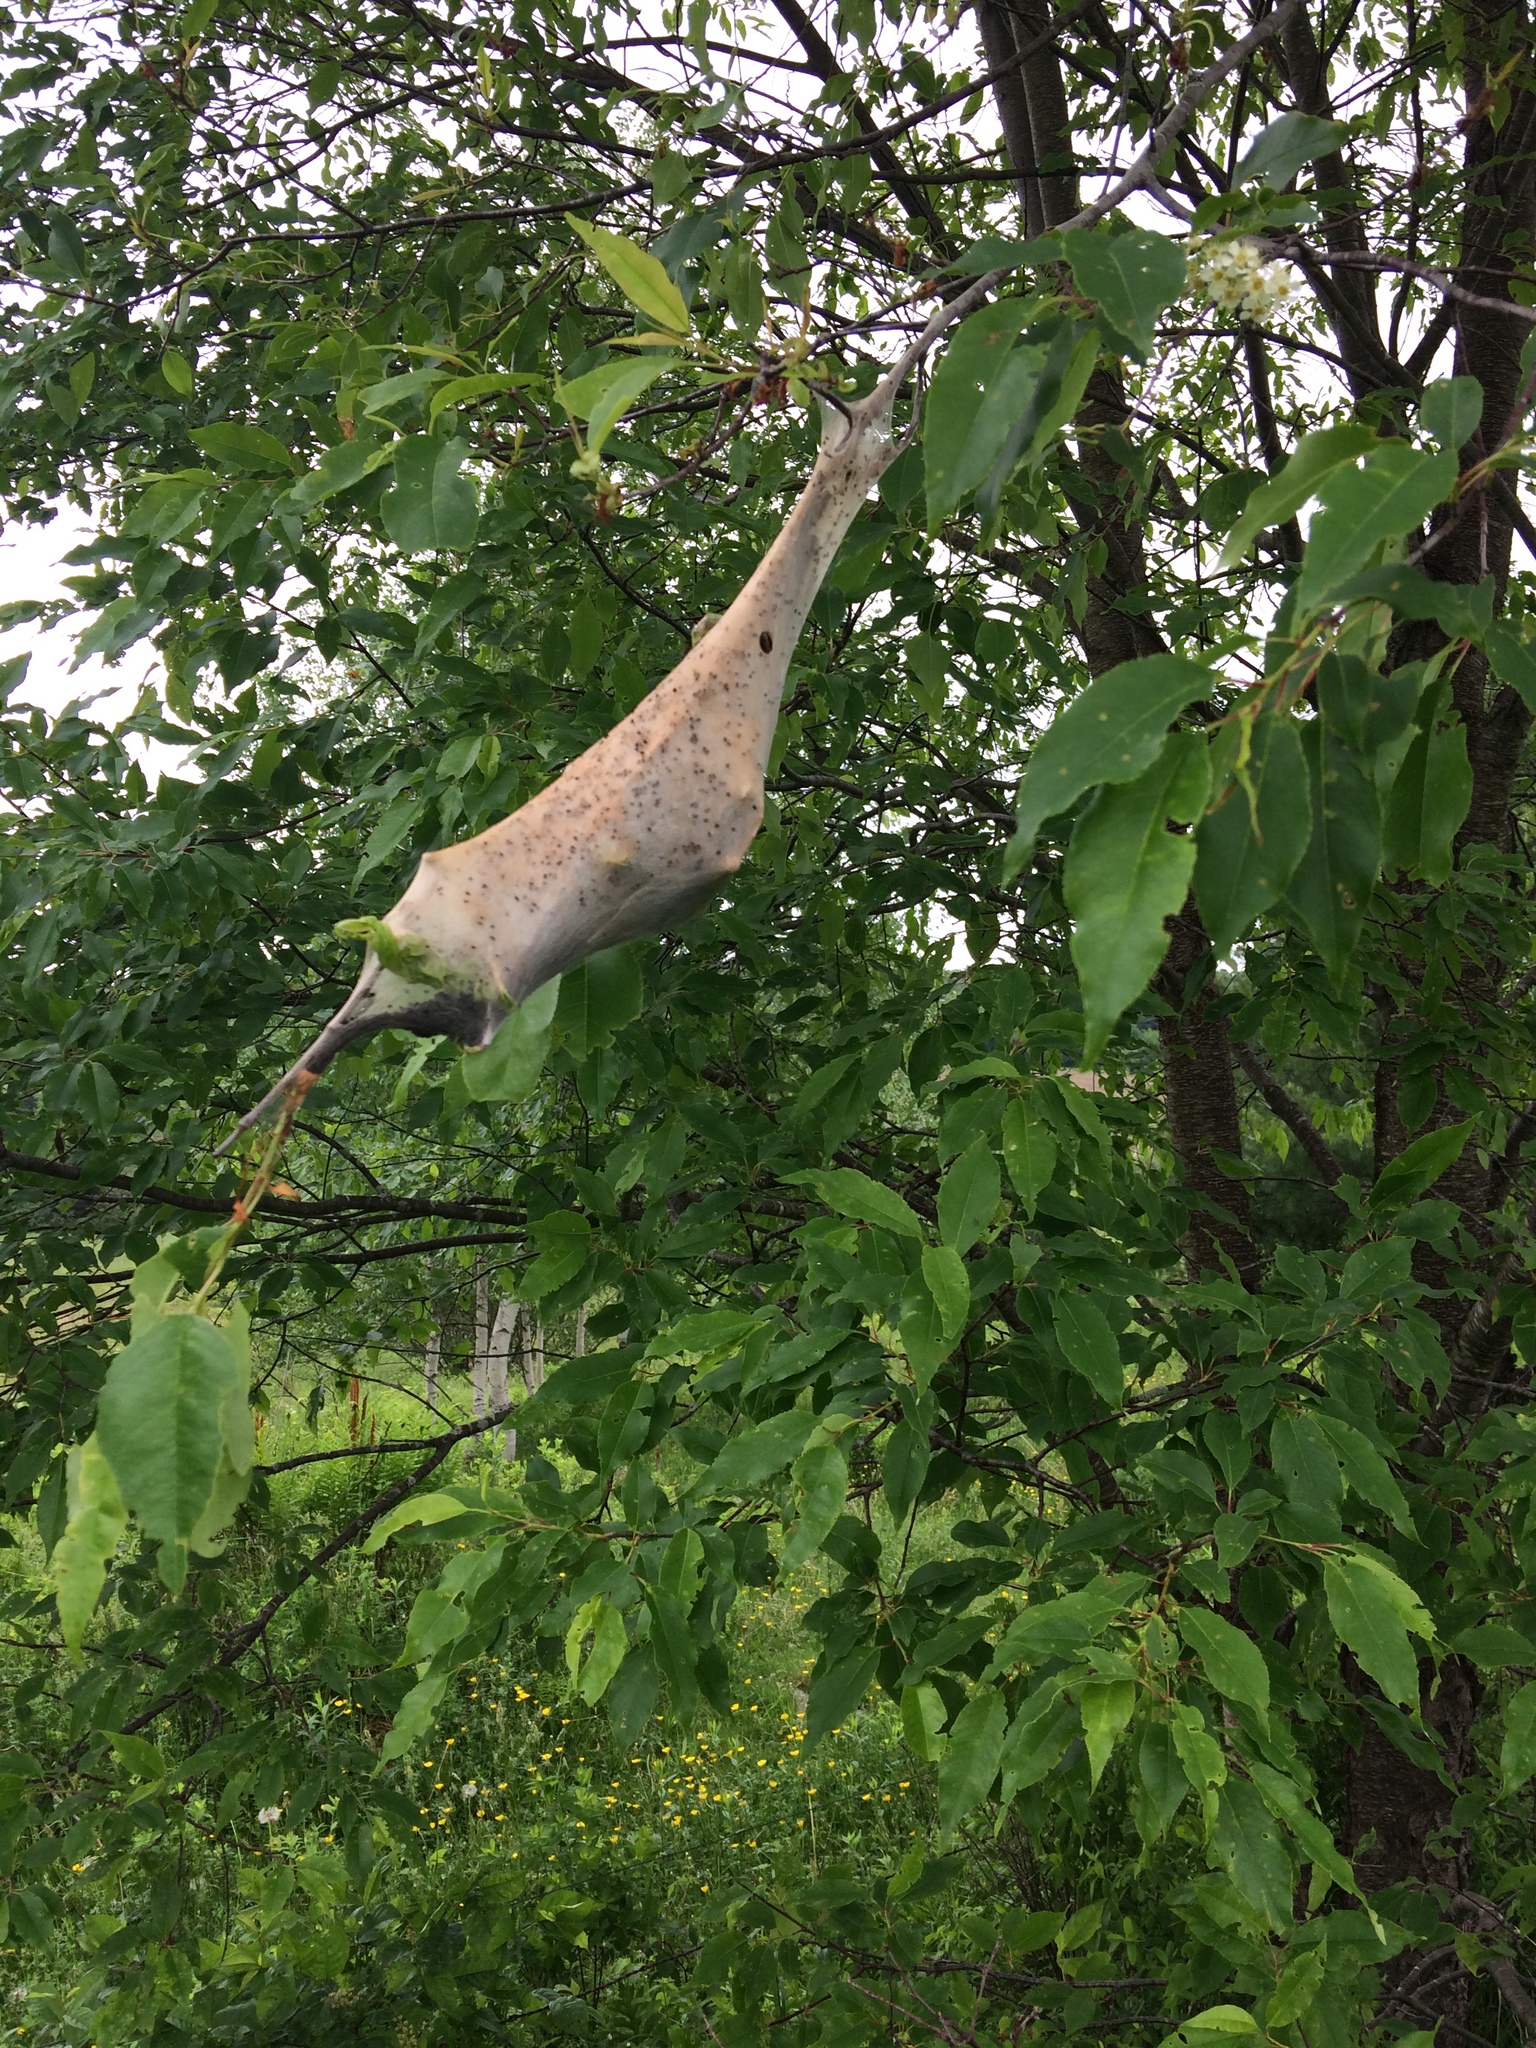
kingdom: Animalia
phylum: Arthropoda
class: Insecta
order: Lepidoptera
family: Lasiocampidae
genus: Malacosoma
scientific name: Malacosoma americana
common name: Eastern tent caterpillar moth
